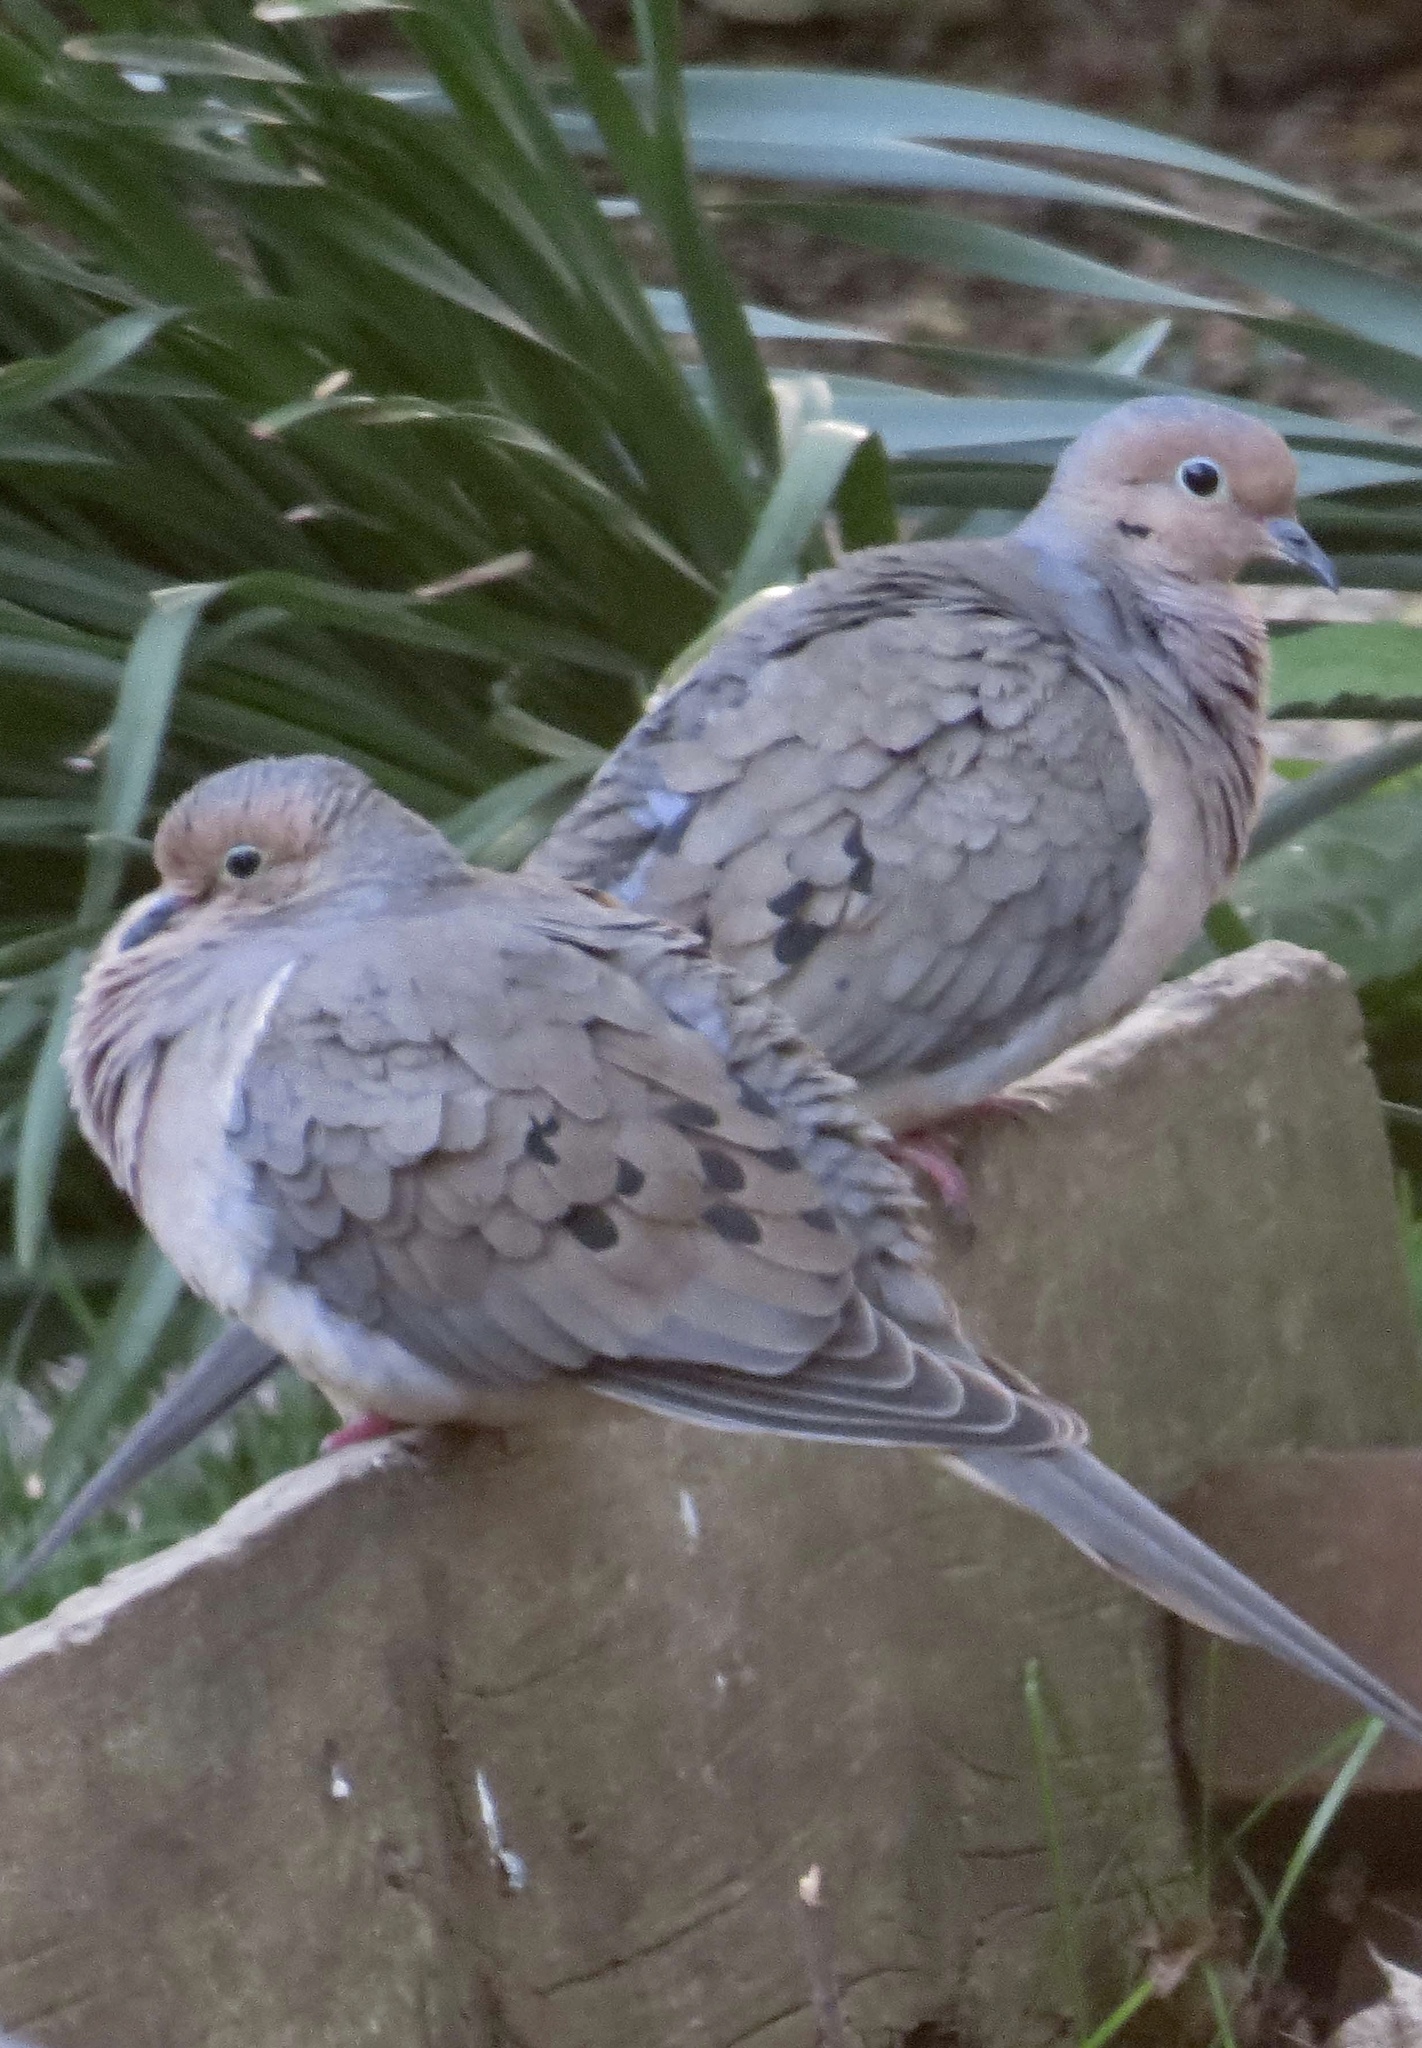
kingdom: Animalia
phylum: Chordata
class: Aves
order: Columbiformes
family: Columbidae
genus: Zenaida
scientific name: Zenaida macroura
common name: Mourning dove
